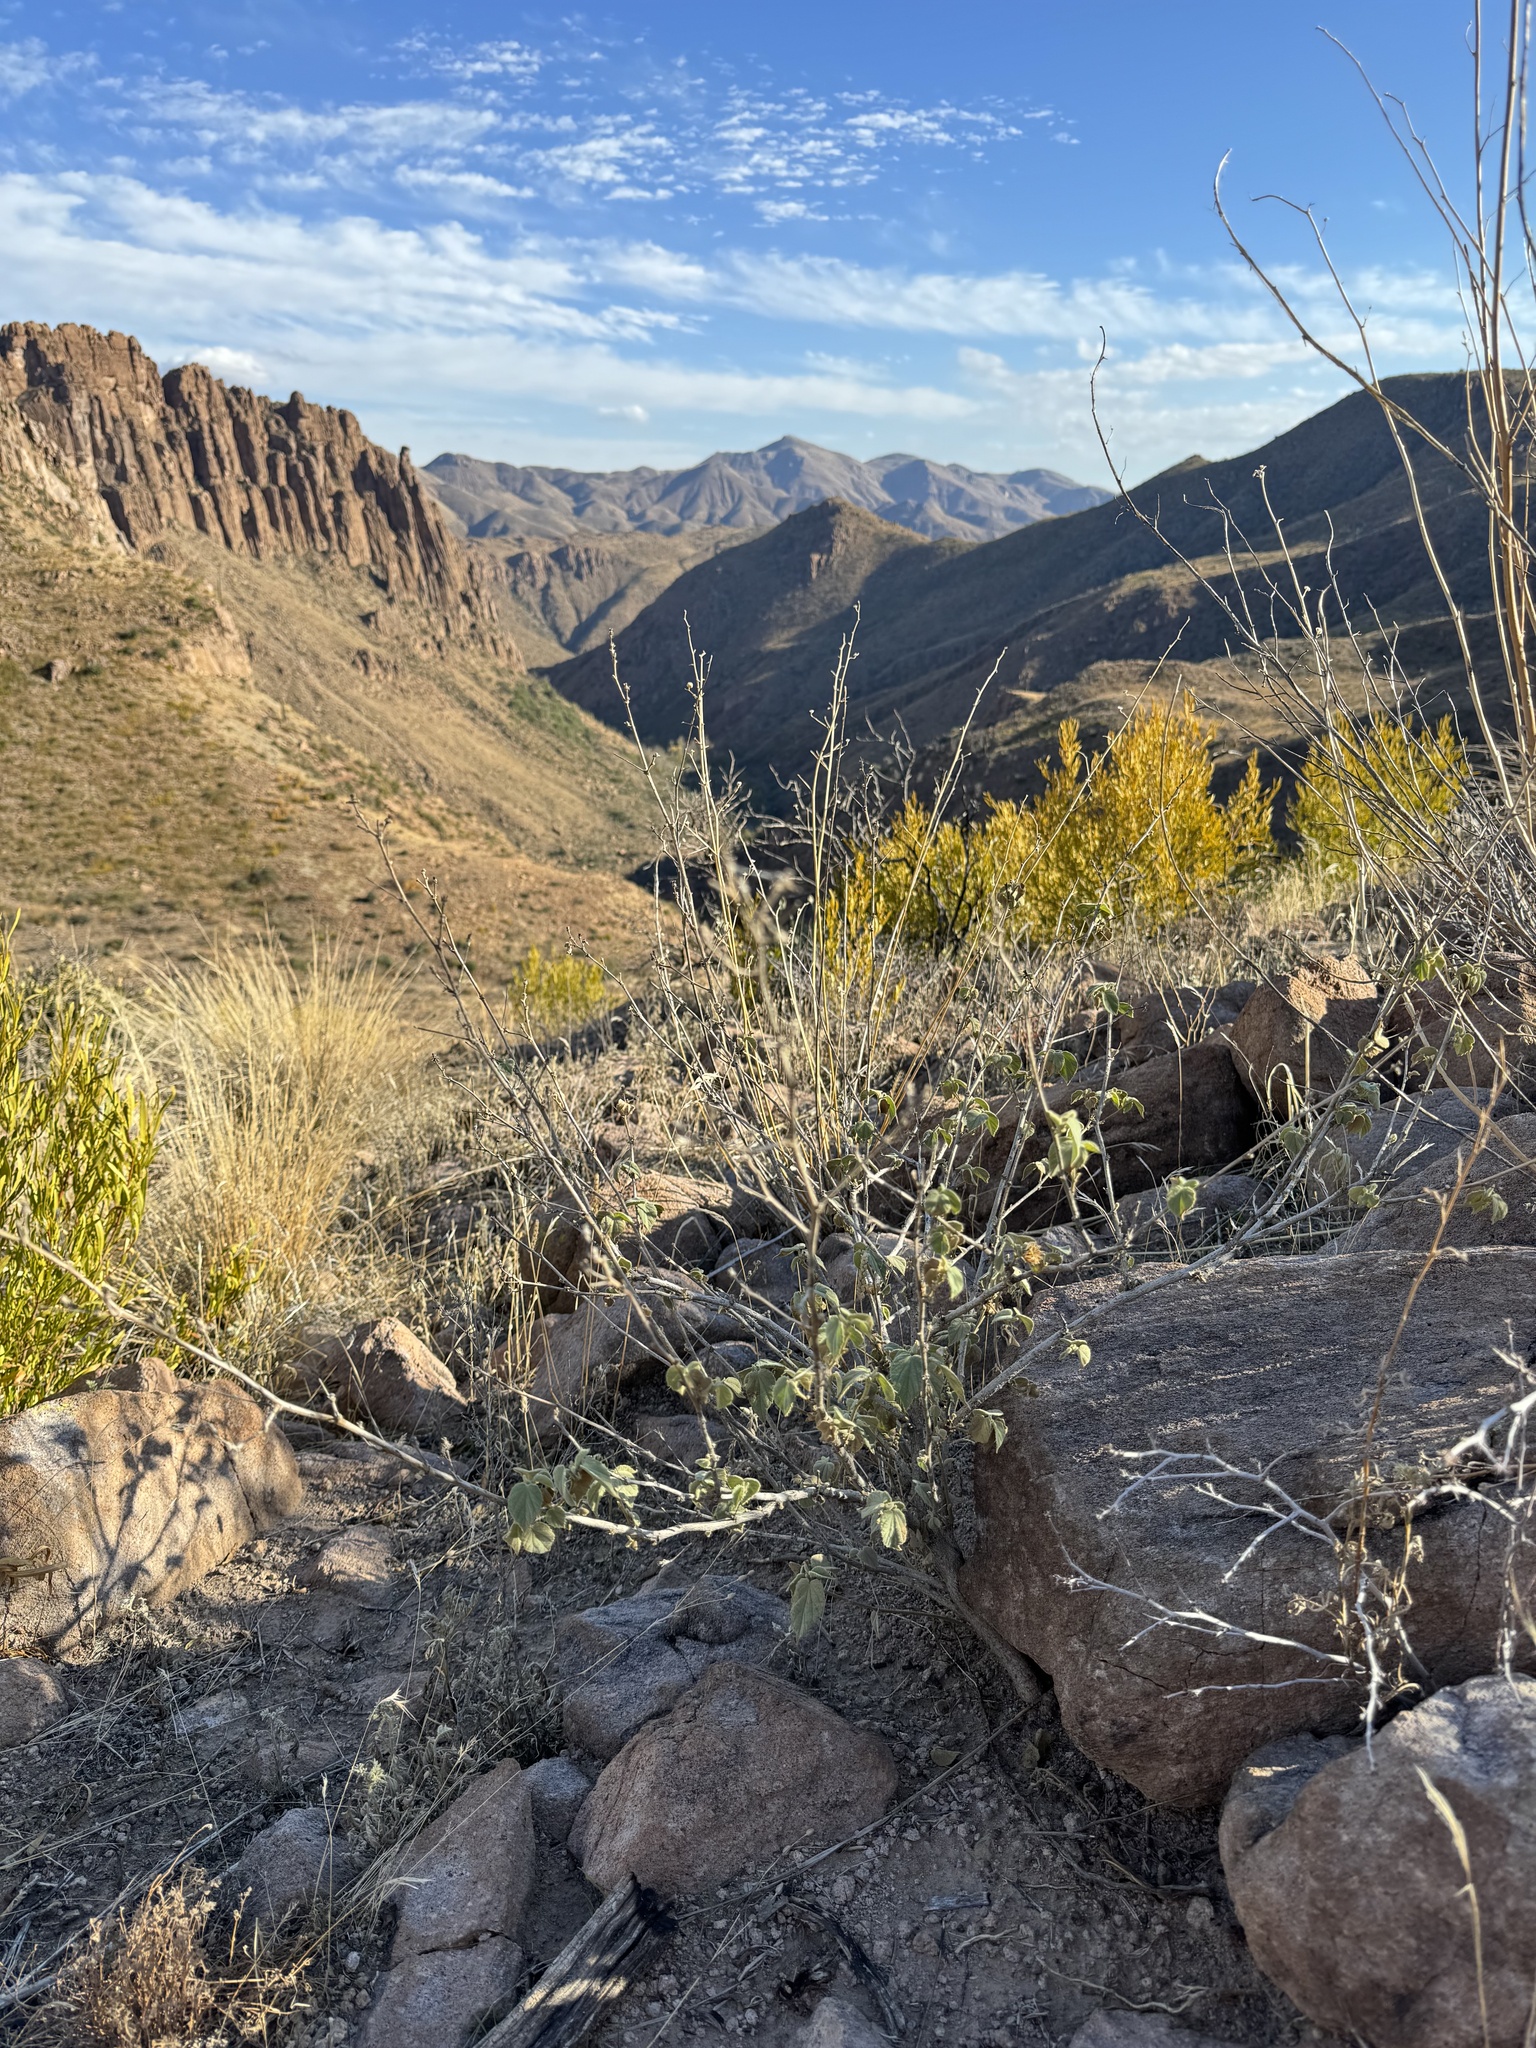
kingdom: Plantae
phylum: Tracheophyta
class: Magnoliopsida
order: Malvales
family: Malvaceae
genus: Abutilon
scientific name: Abutilon abutiloides
